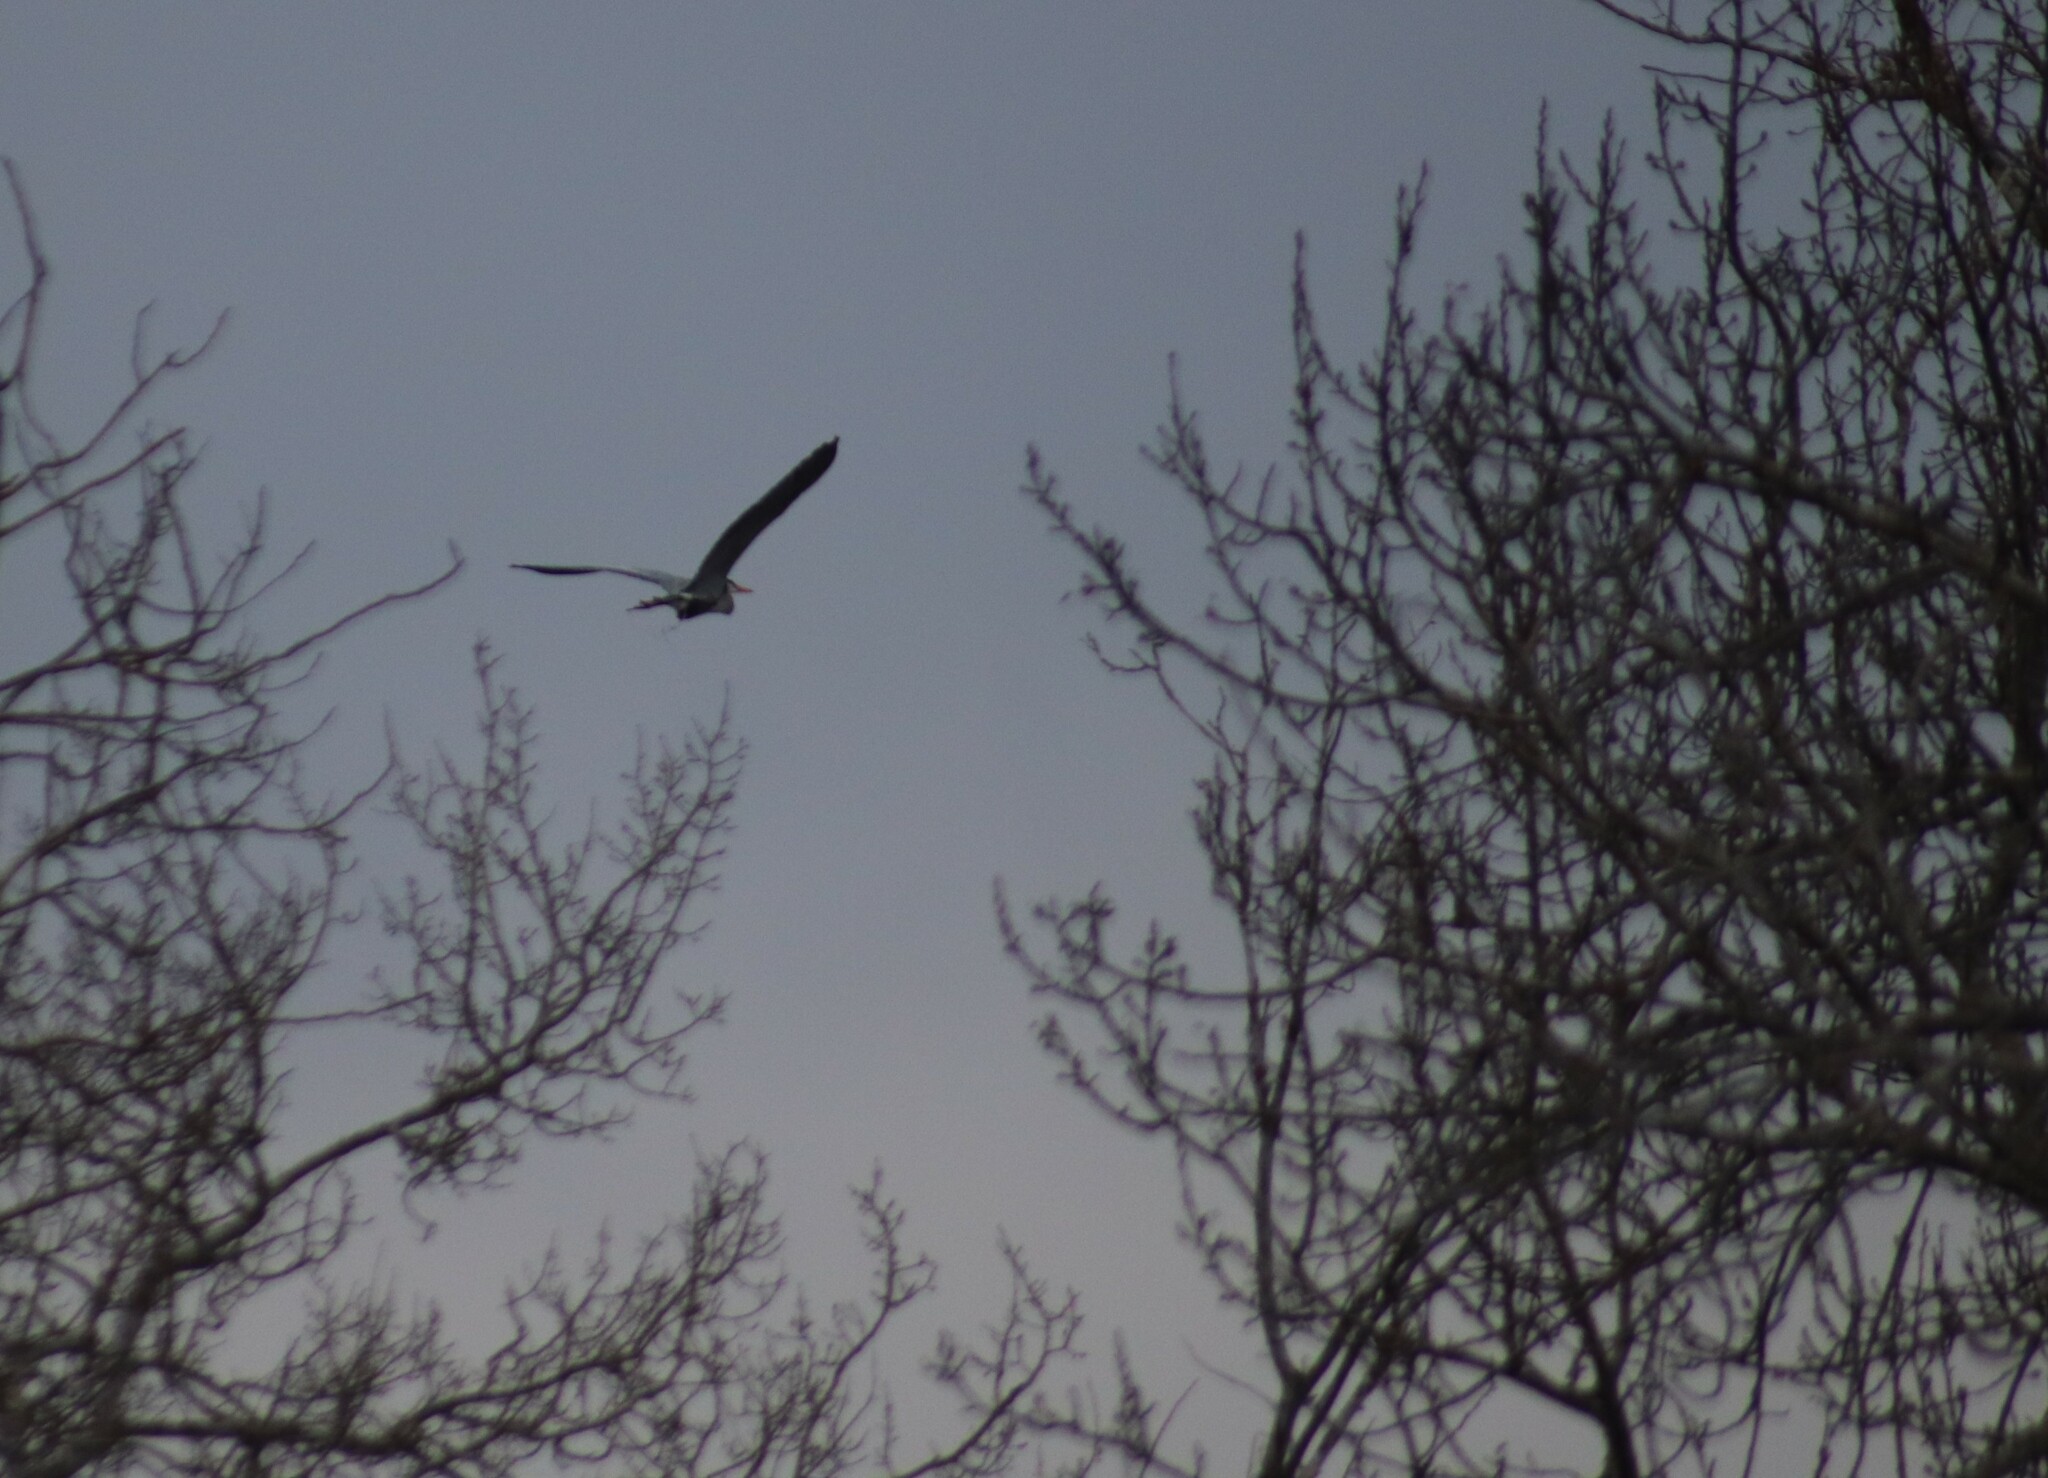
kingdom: Animalia
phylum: Chordata
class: Aves
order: Pelecaniformes
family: Ardeidae
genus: Ardea
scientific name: Ardea herodias
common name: Great blue heron
